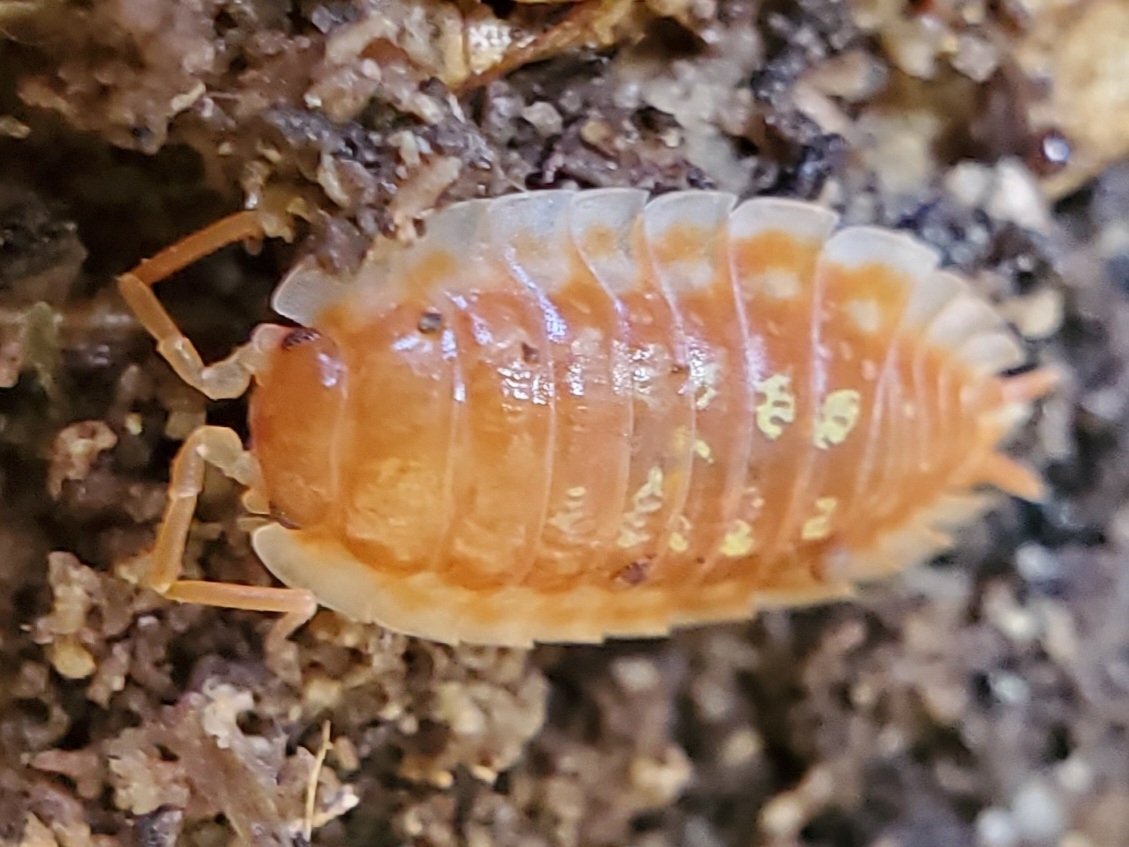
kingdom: Animalia
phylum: Arthropoda
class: Malacostraca
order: Isopoda
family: Oniscidae
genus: Oniscus
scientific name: Oniscus asellus
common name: Common shiny woodlouse
